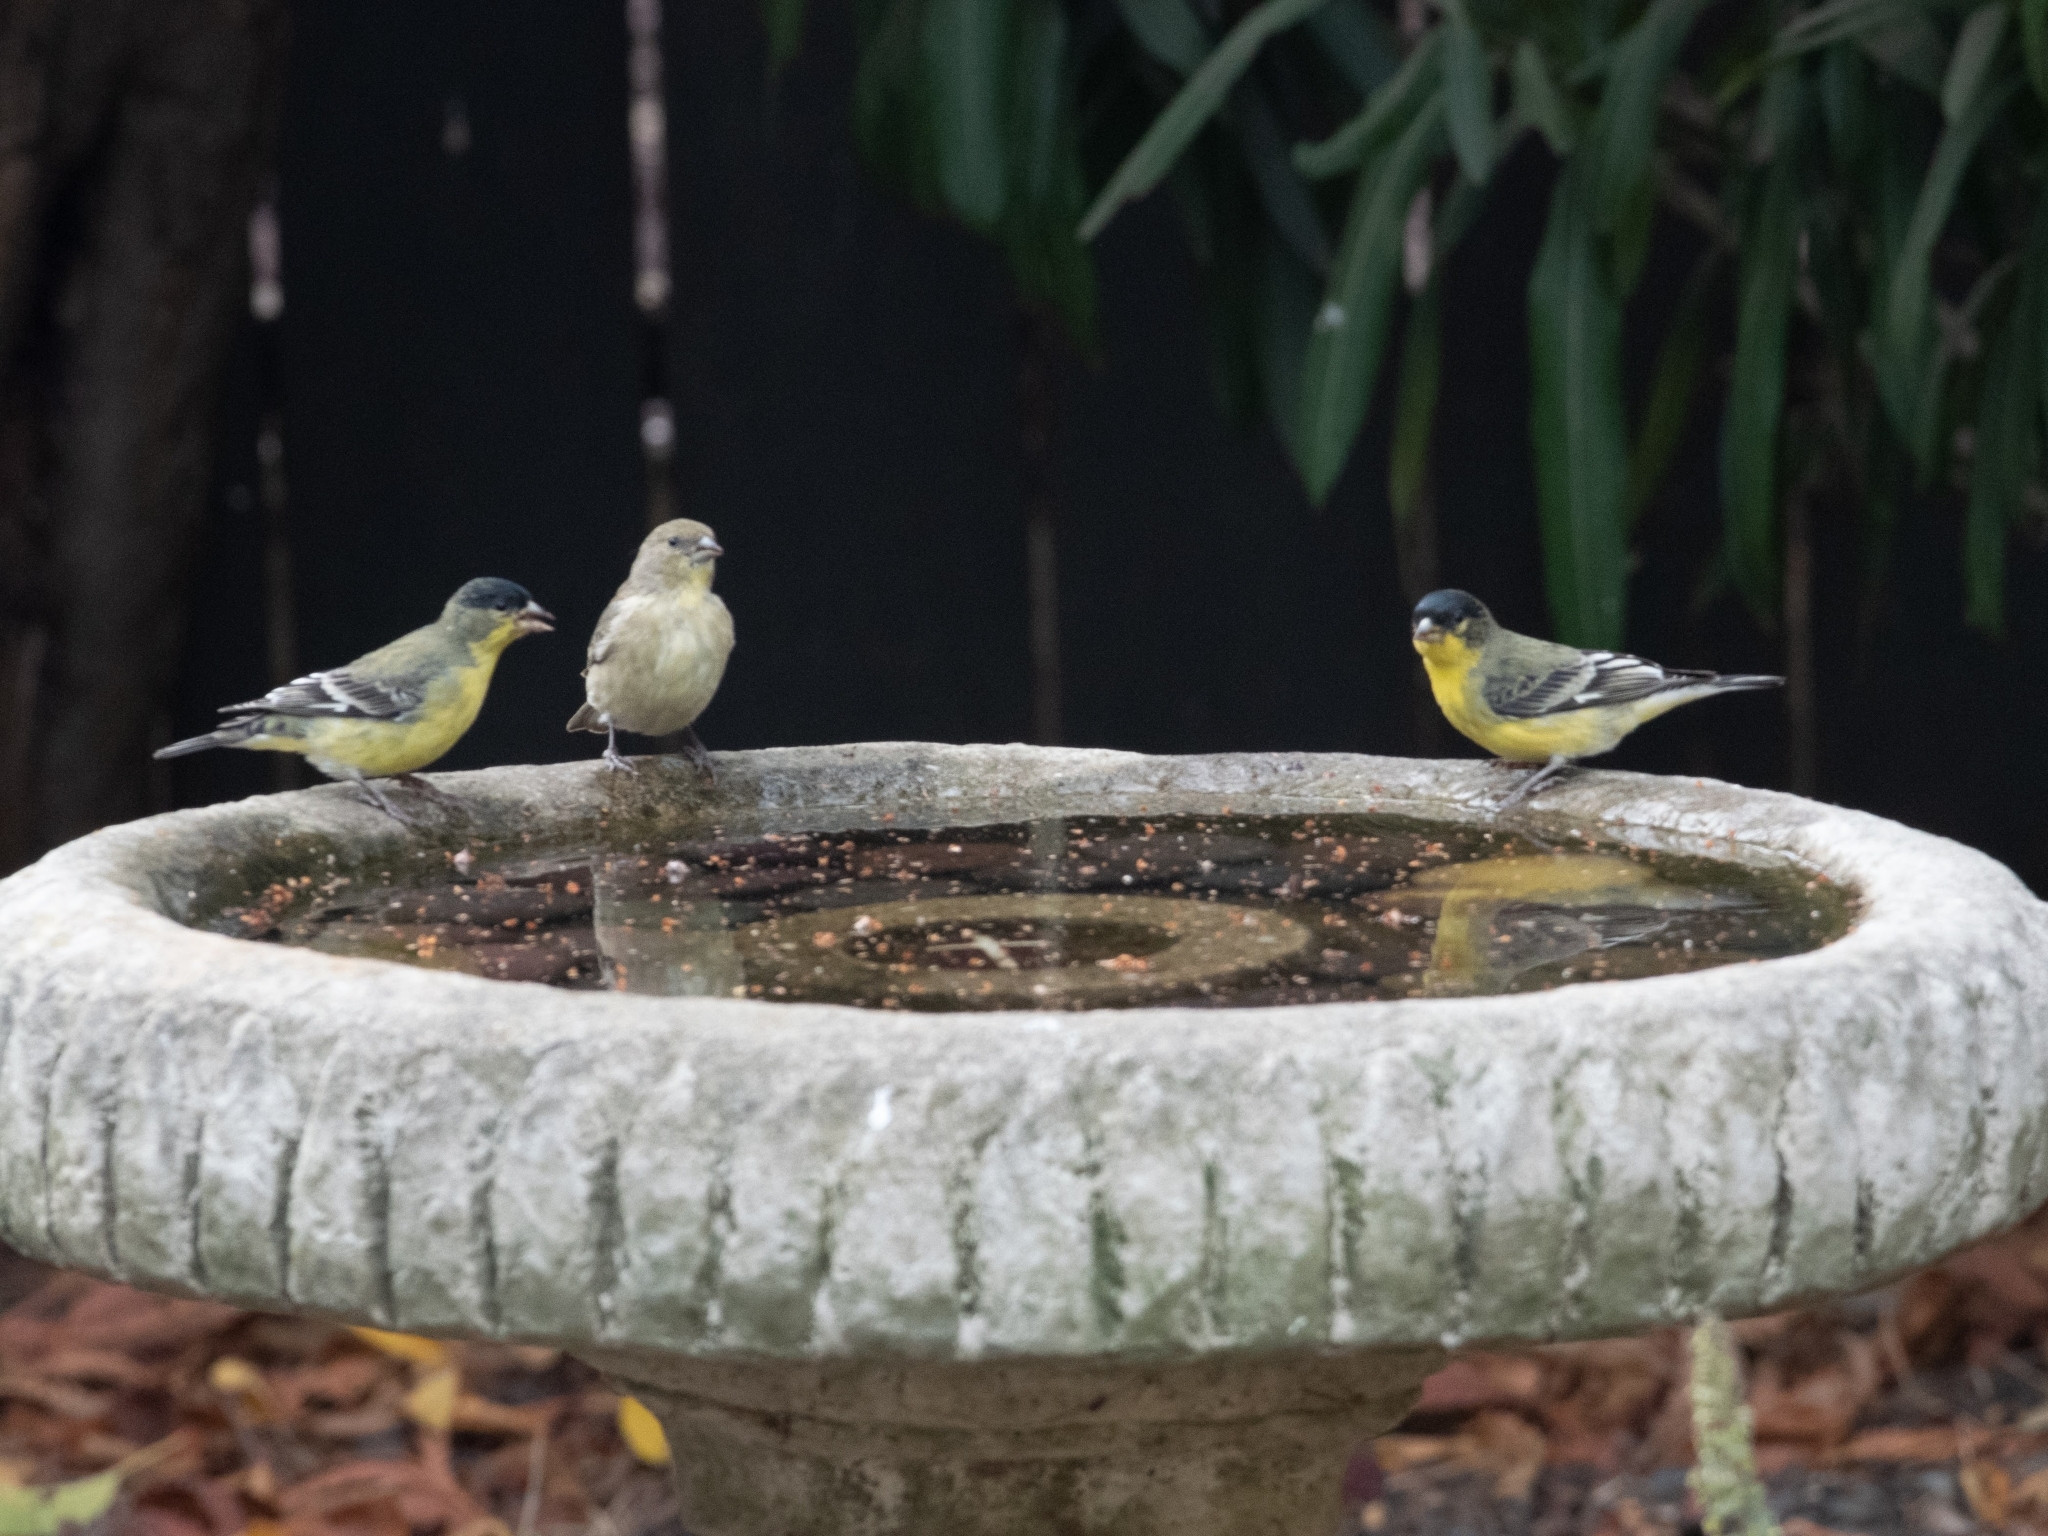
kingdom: Animalia
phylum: Chordata
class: Aves
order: Passeriformes
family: Fringillidae
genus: Spinus
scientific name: Spinus psaltria
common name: Lesser goldfinch
